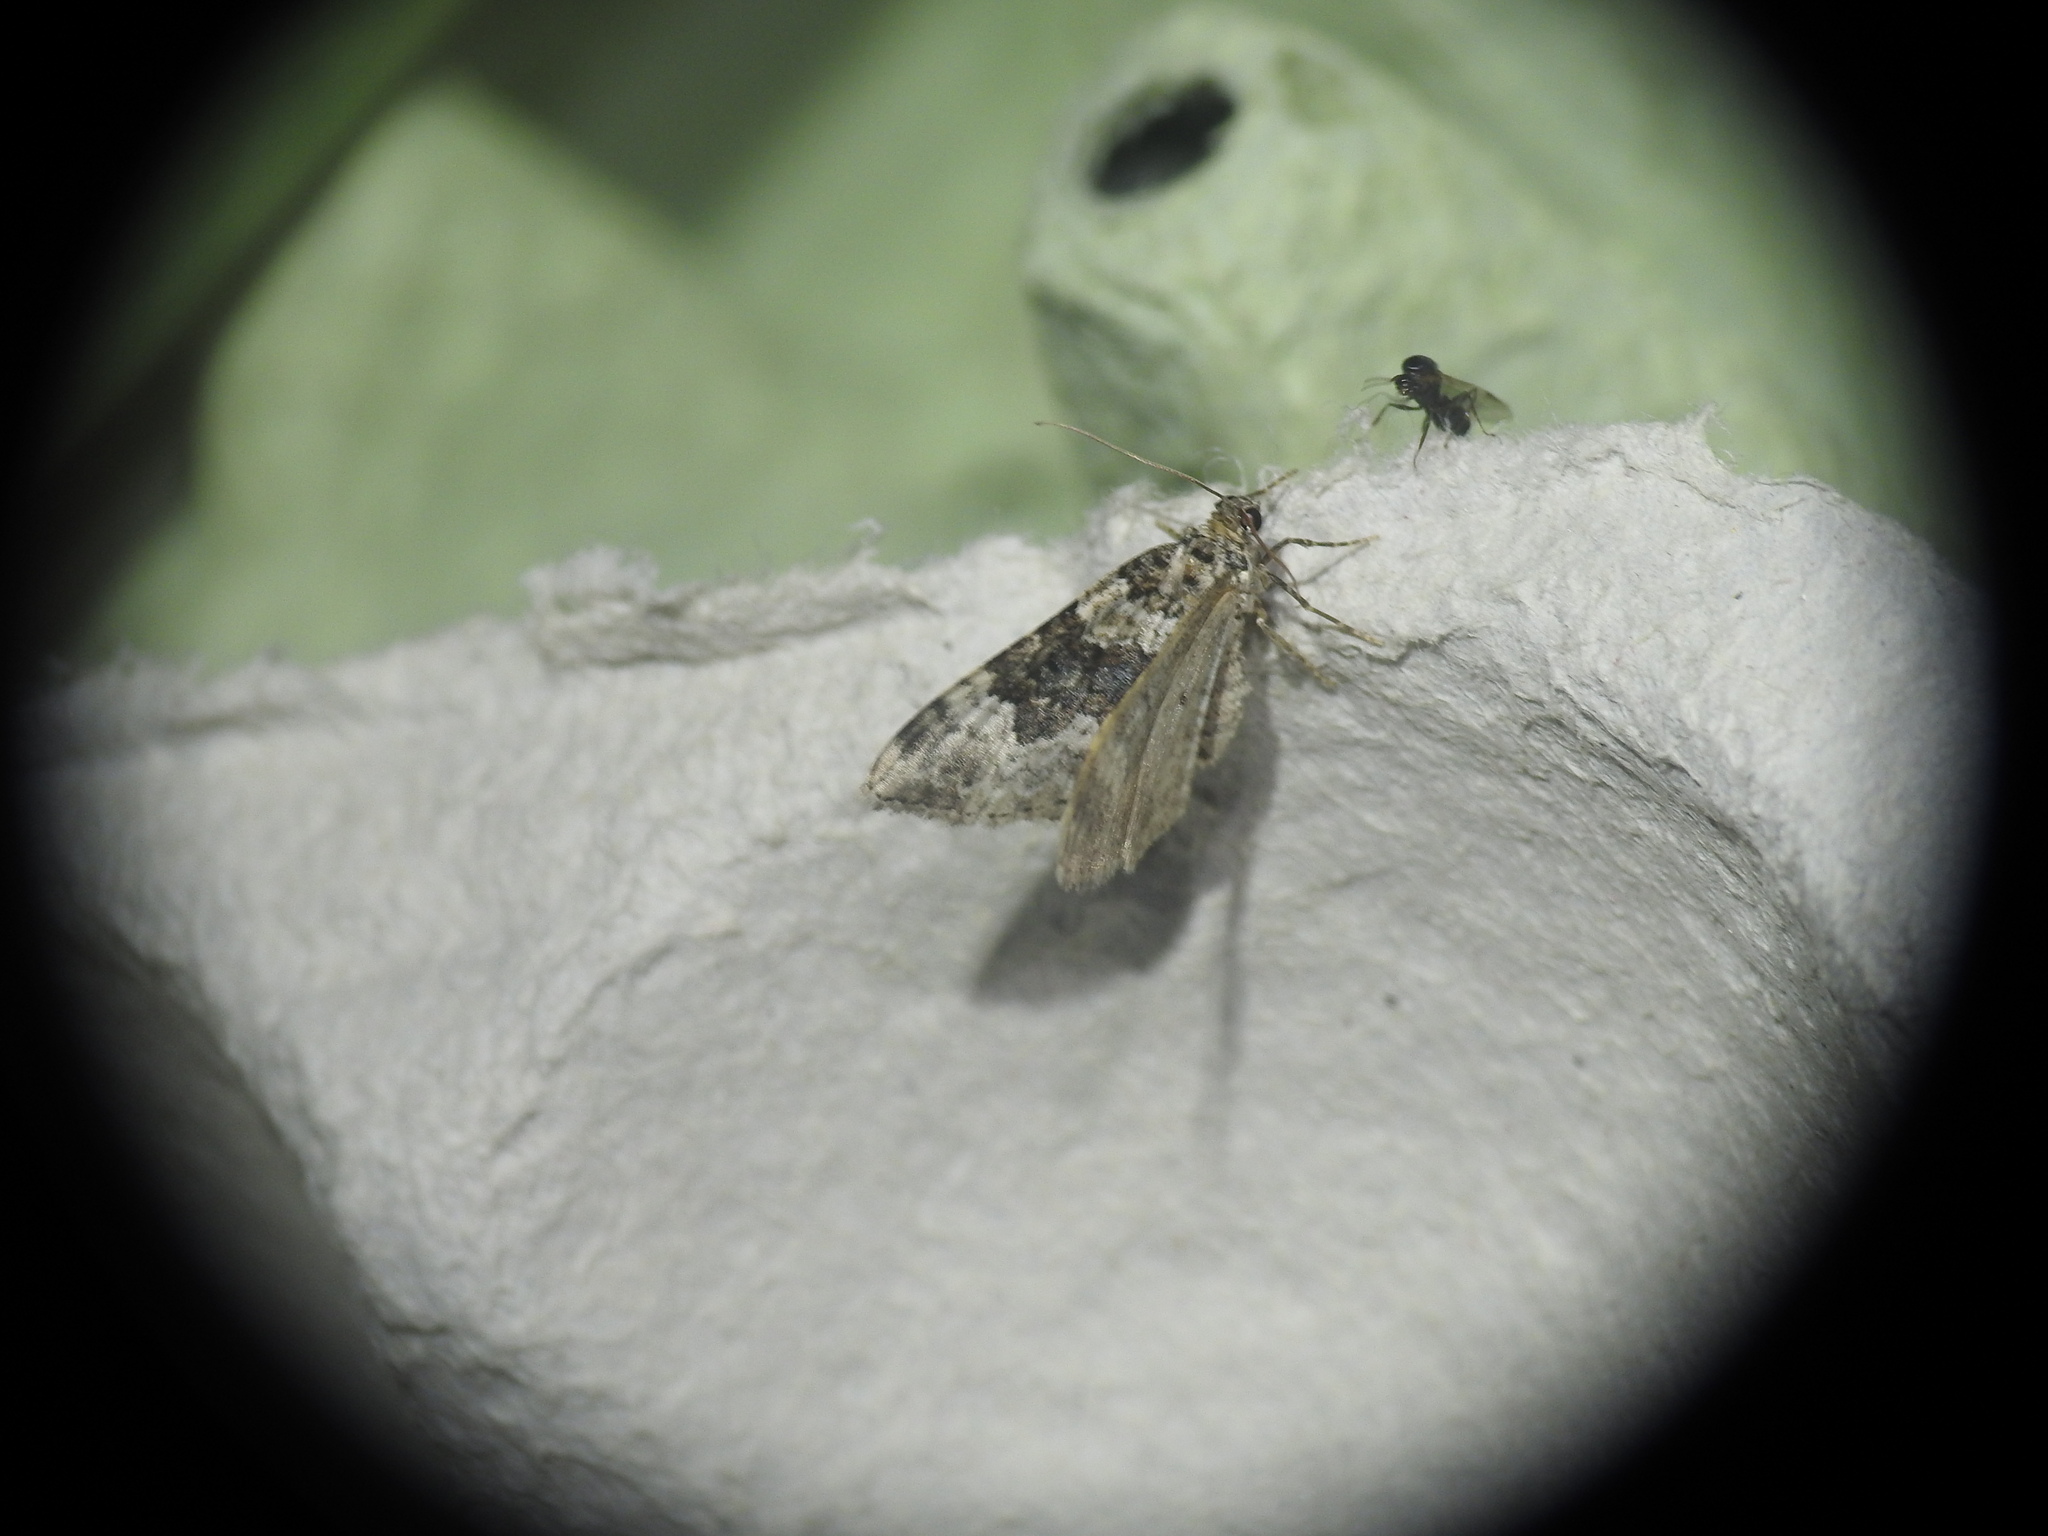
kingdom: Animalia
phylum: Arthropoda
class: Insecta
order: Lepidoptera
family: Geometridae
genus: Epirrhoe
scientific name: Epirrhoe galiata
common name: Galium carpet
